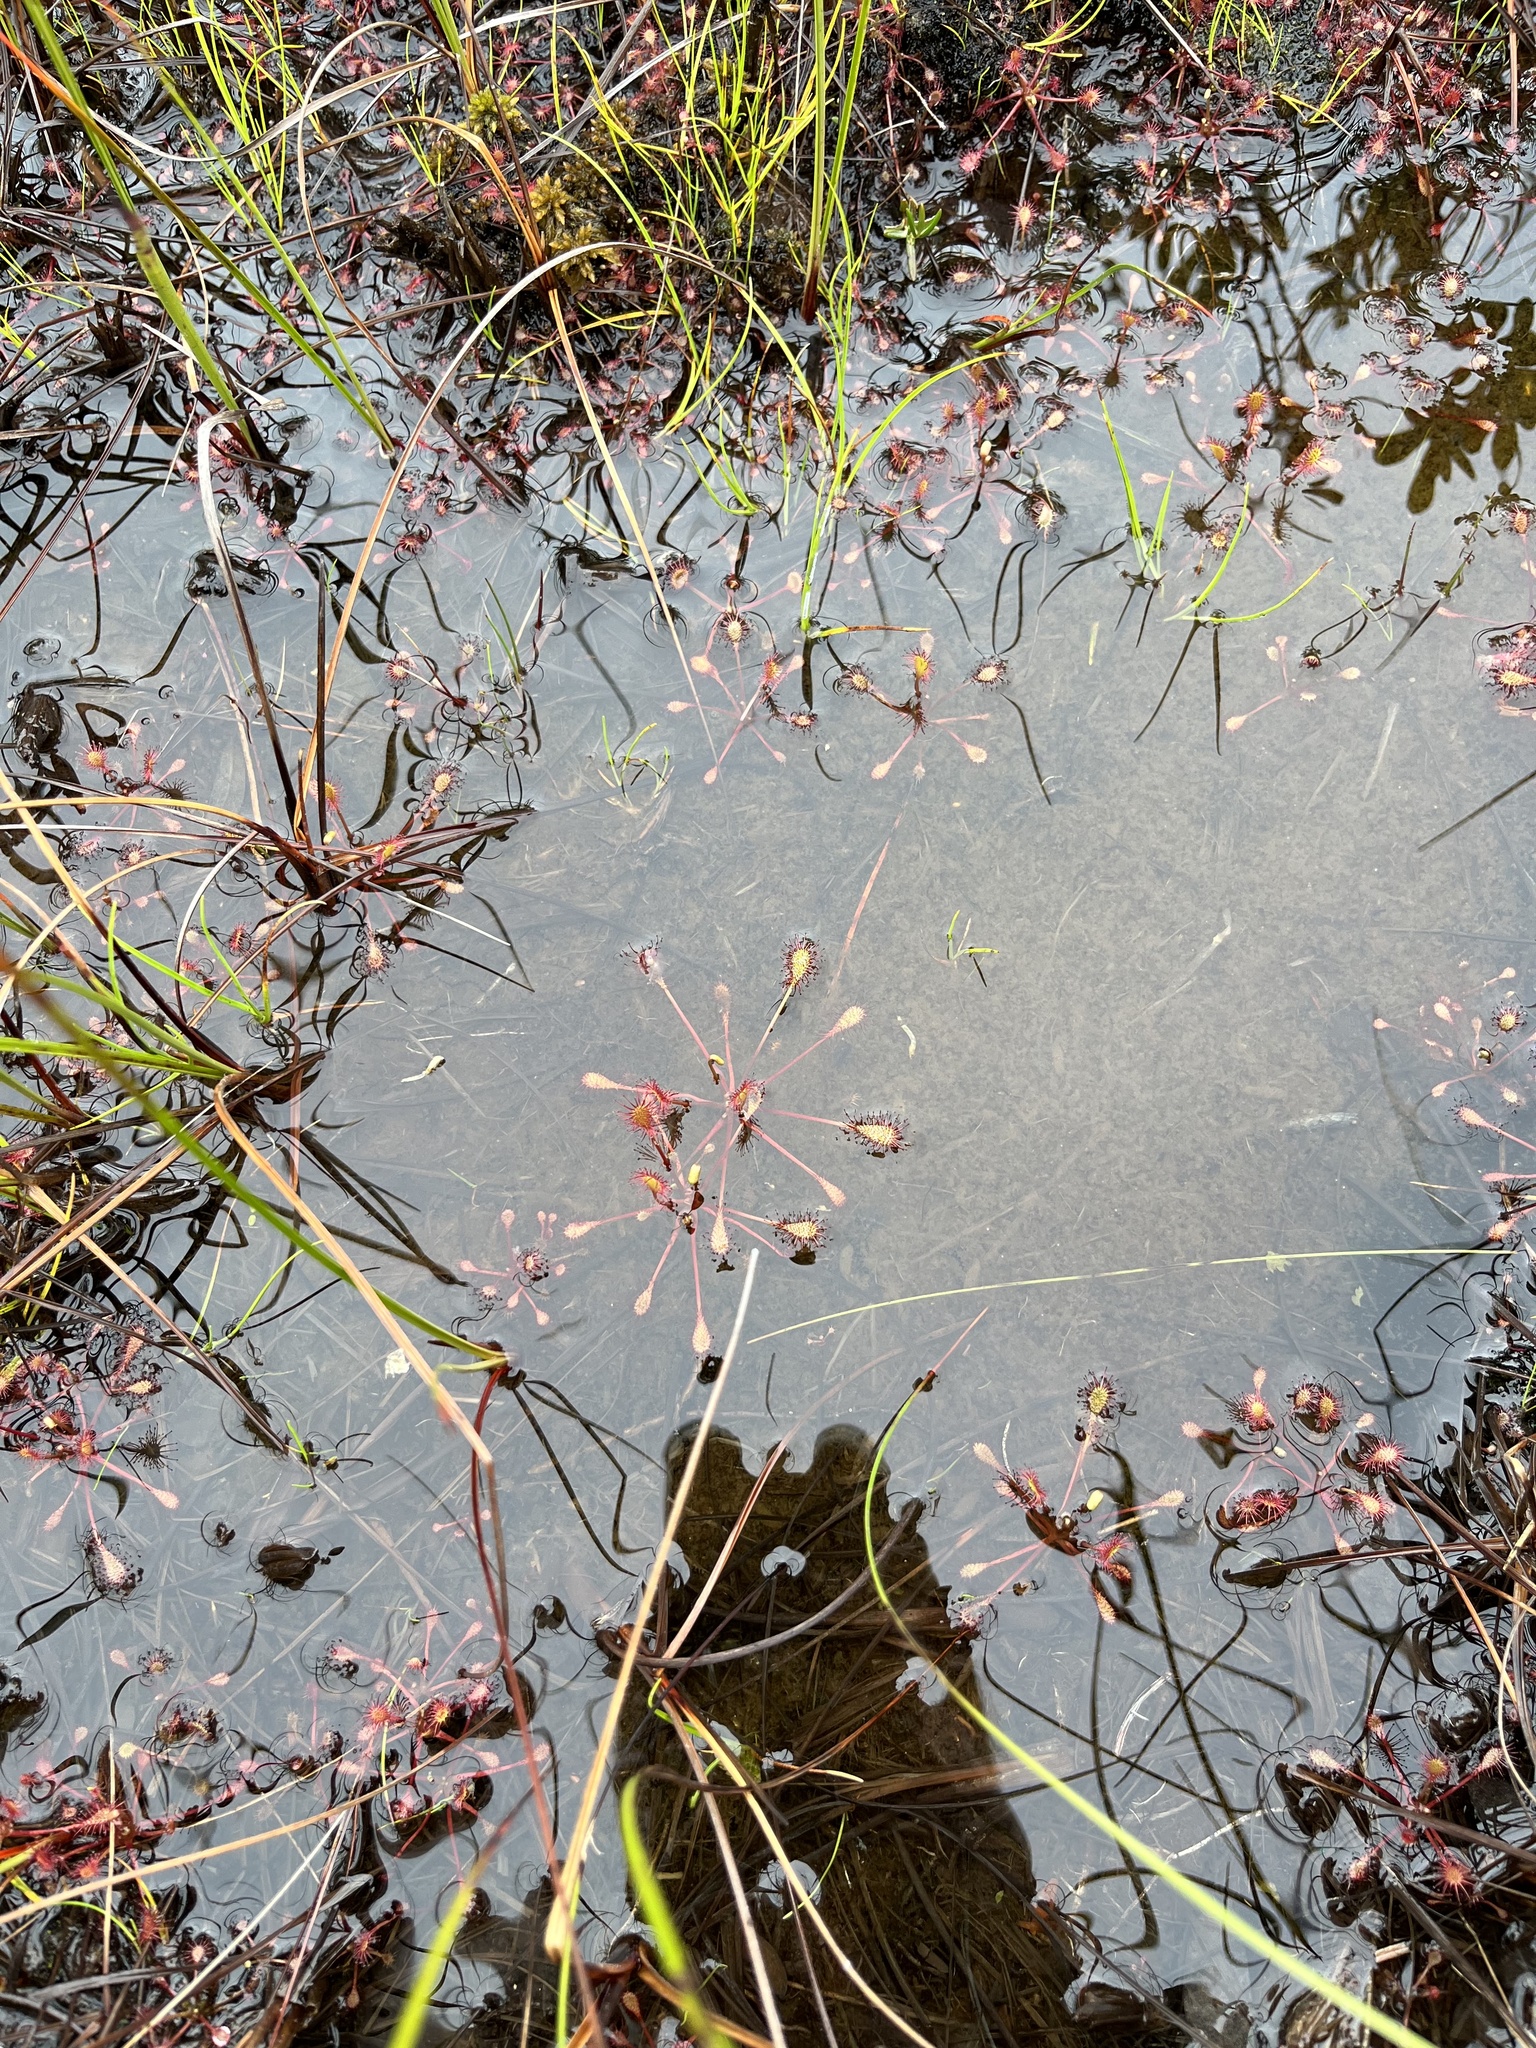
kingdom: Plantae
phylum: Tracheophyta
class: Magnoliopsida
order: Caryophyllales
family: Droseraceae
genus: Drosera
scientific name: Drosera intermedia
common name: Oblong-leaved sundew
